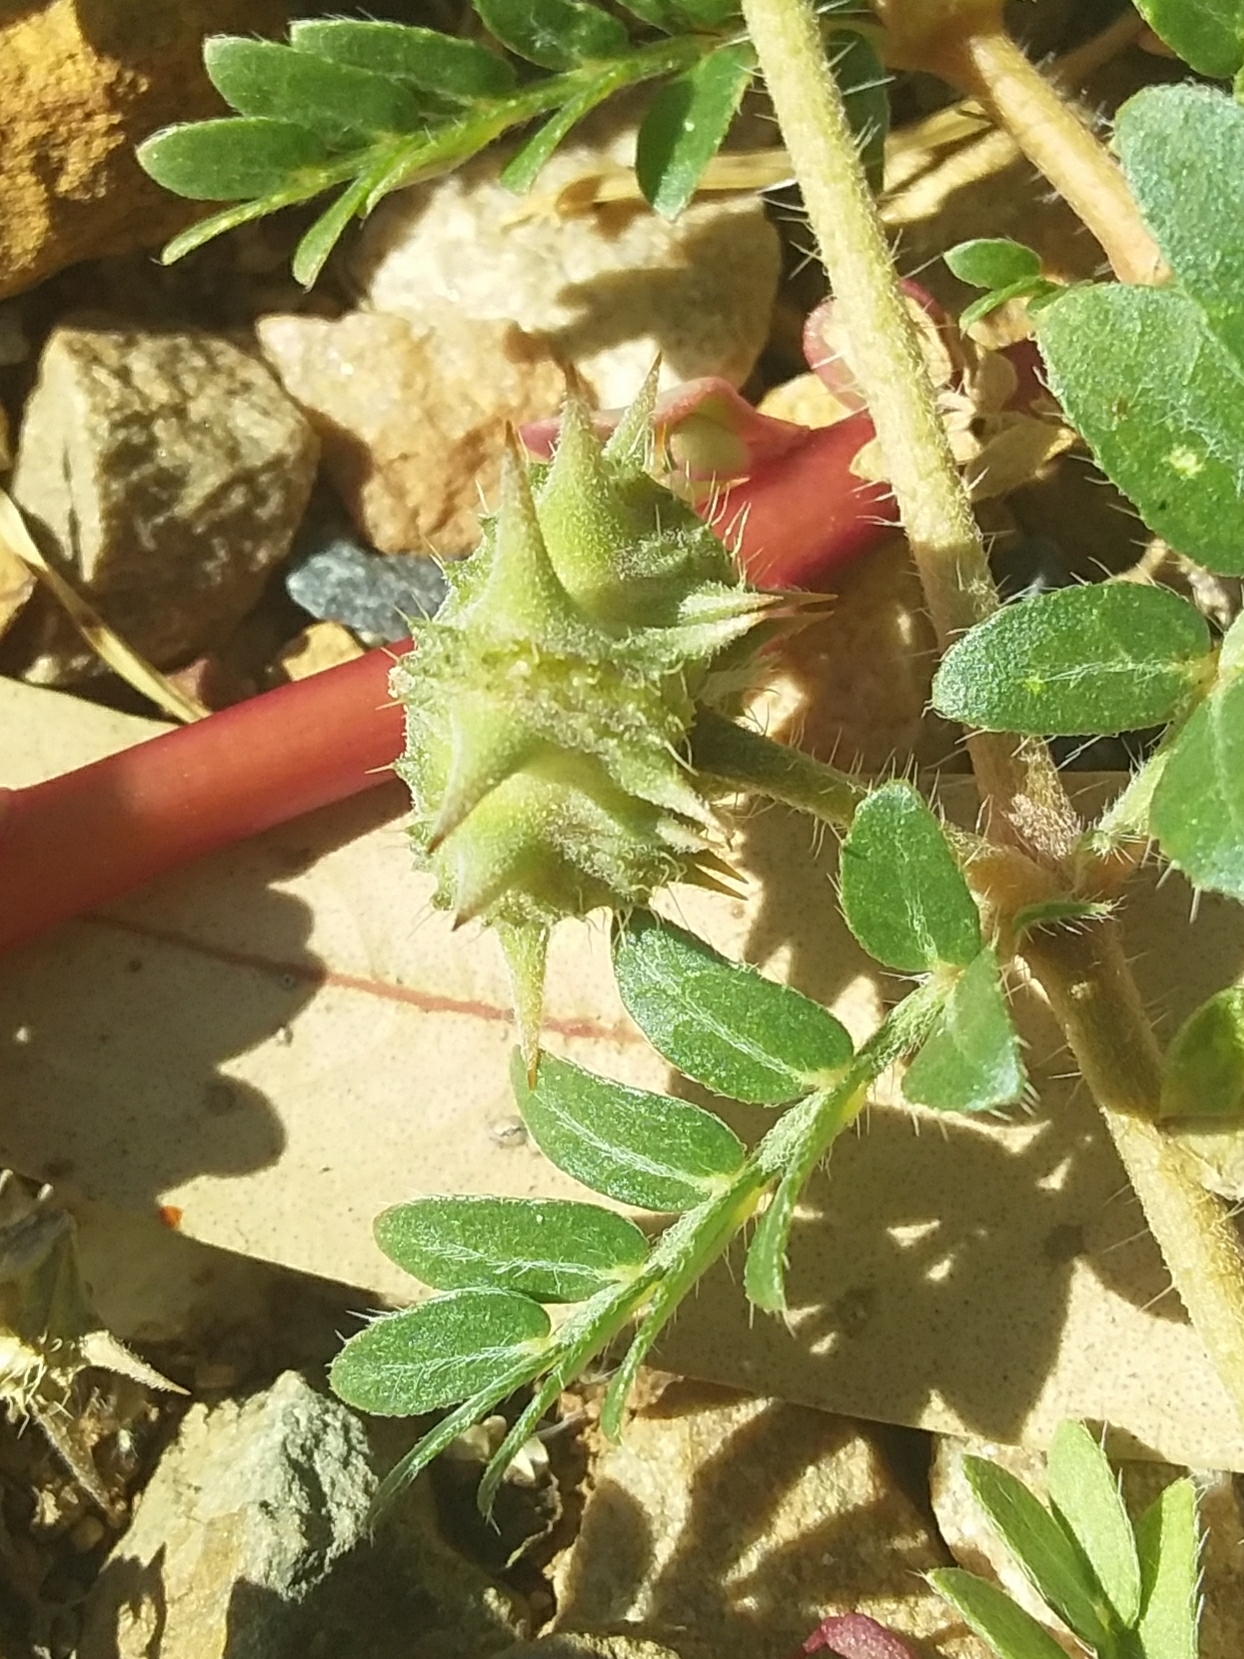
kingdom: Plantae
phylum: Tracheophyta
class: Magnoliopsida
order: Zygophyllales
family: Zygophyllaceae
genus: Tribulus
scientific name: Tribulus terrestris
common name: Puncturevine
